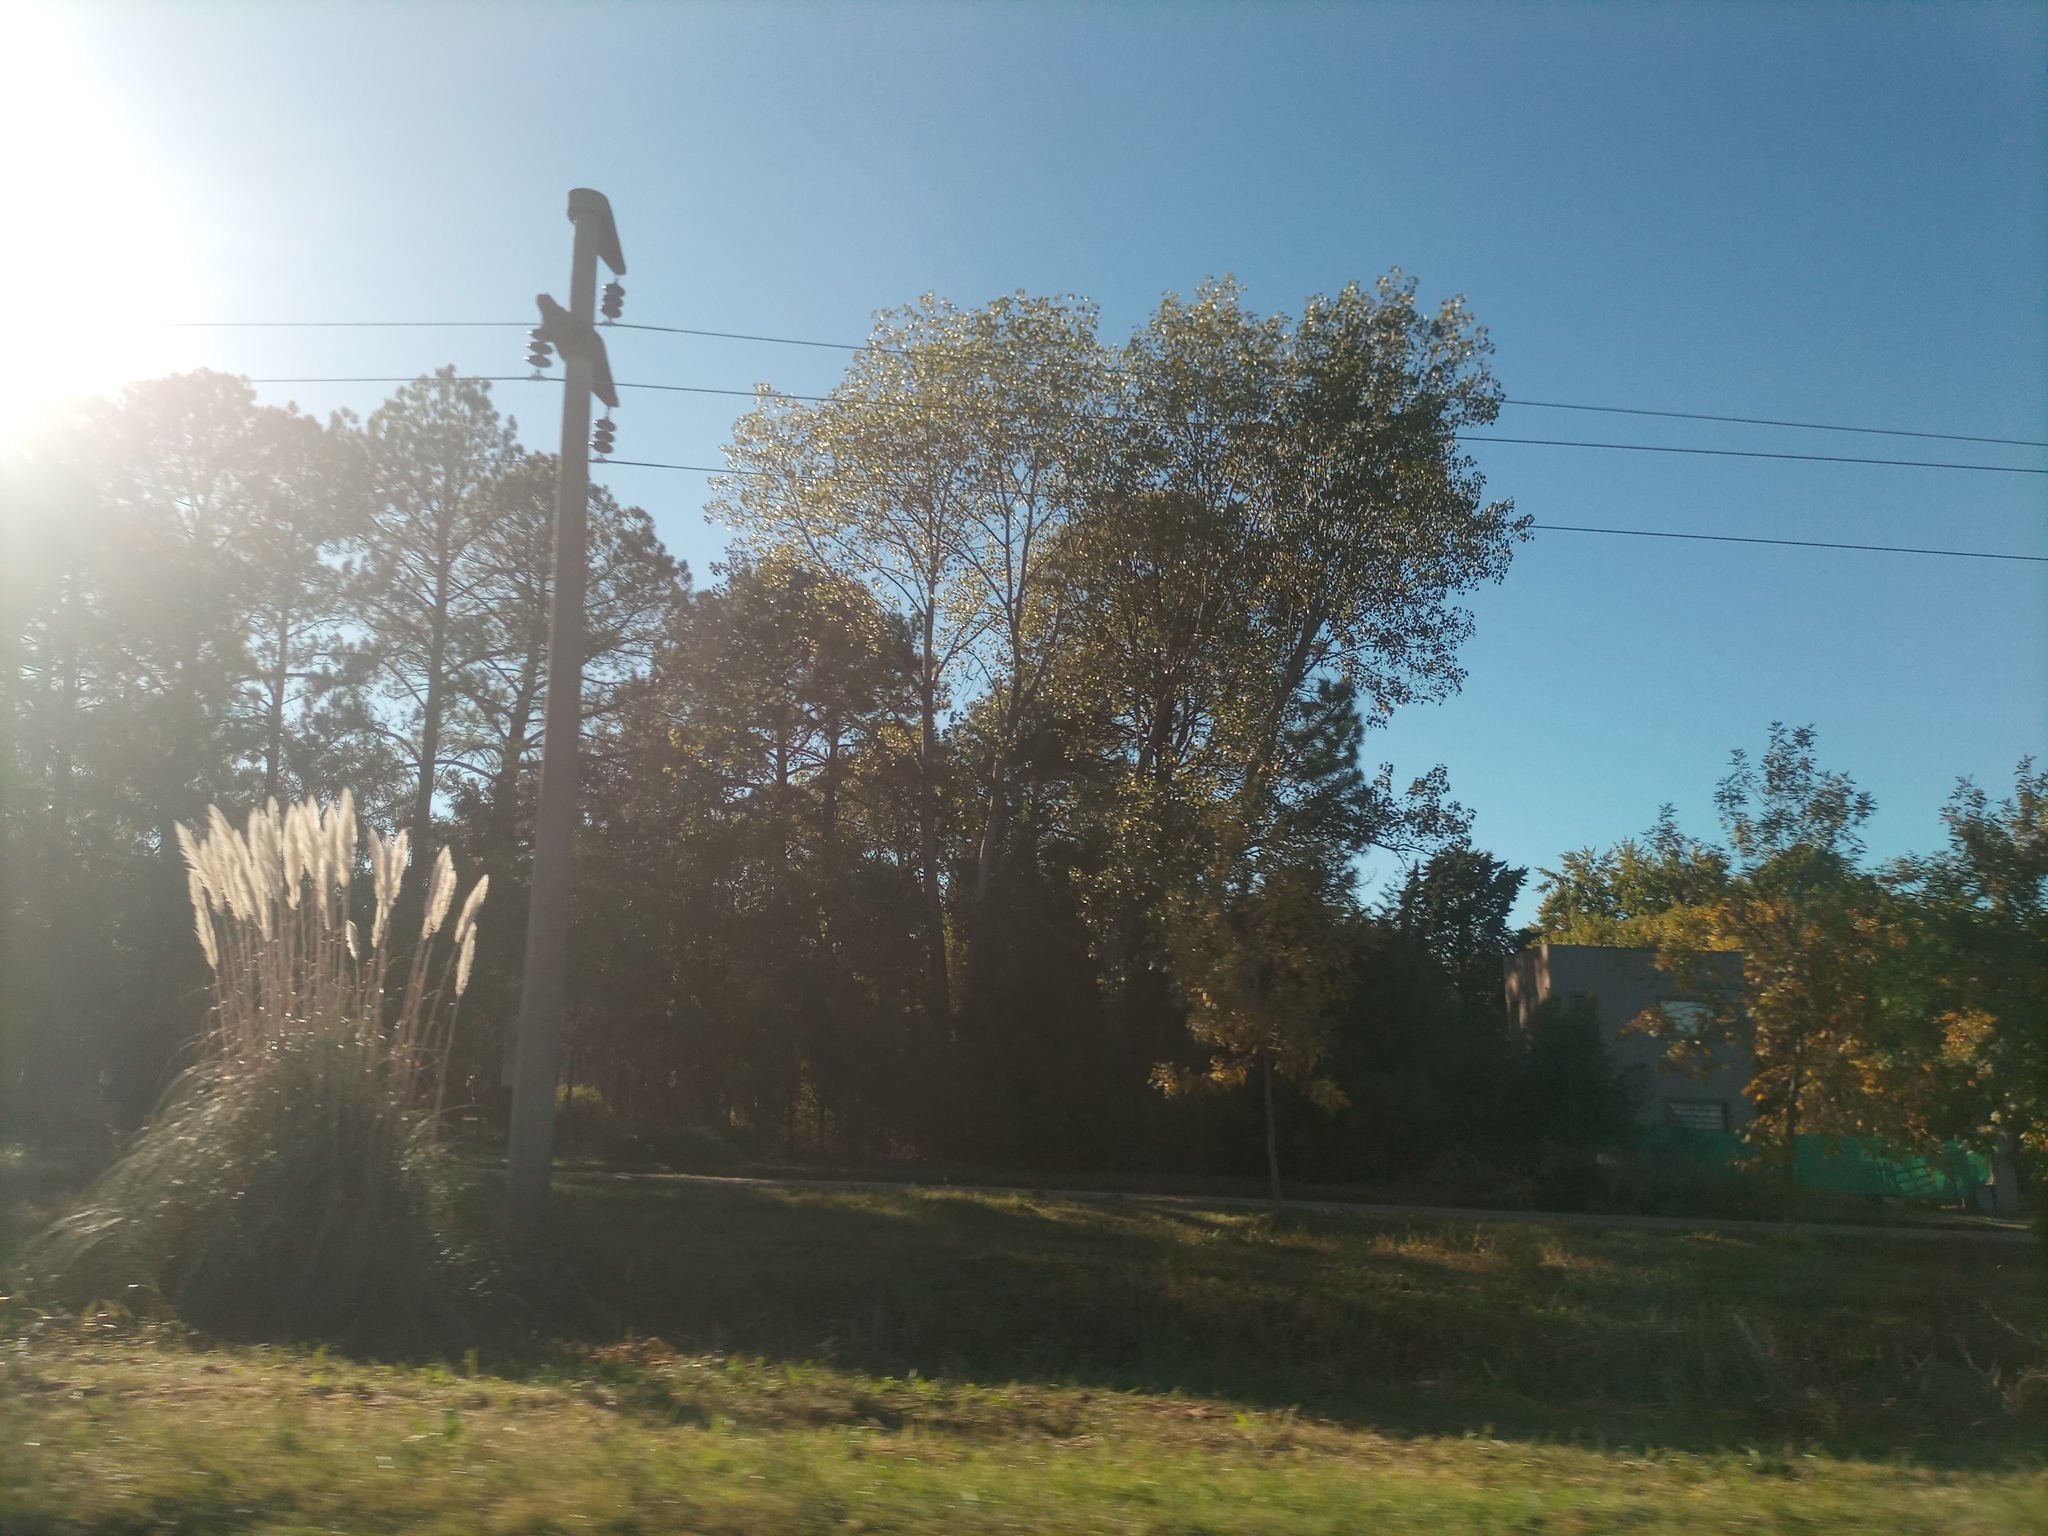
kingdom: Plantae
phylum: Tracheophyta
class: Liliopsida
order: Poales
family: Poaceae
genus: Cortaderia
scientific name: Cortaderia selloana
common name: Uruguayan pampas grass
